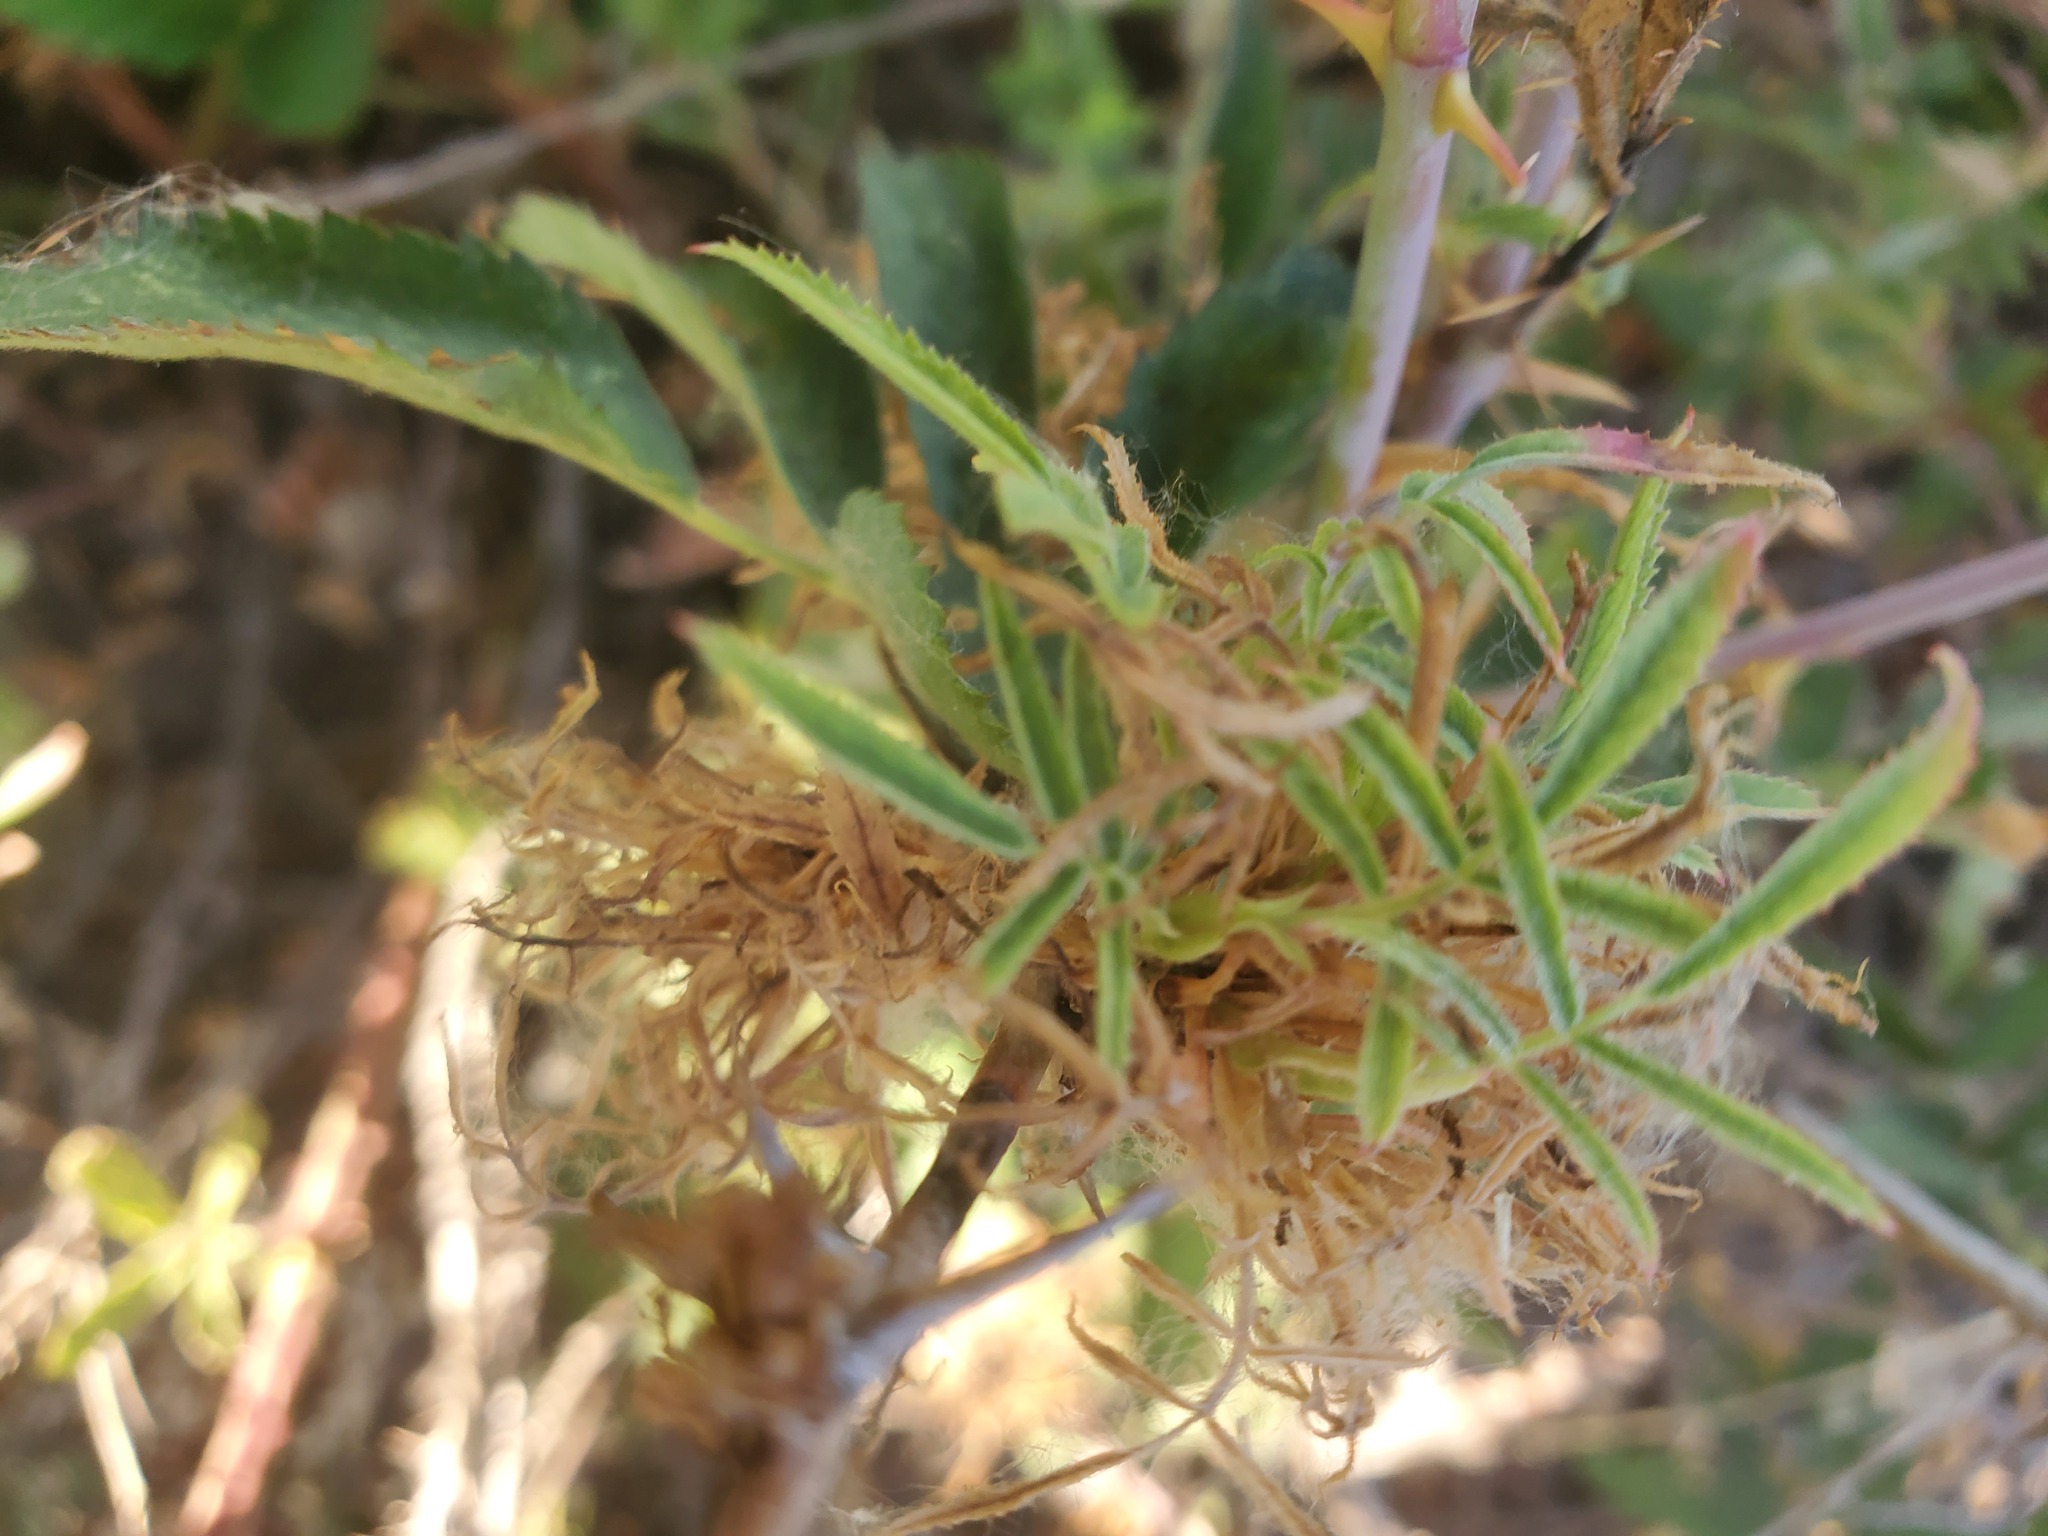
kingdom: Viruses
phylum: Negarnaviricota
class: Ellioviricetes
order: Bunyavirales
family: Fimoviridae
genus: Emaravirus
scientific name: Emaravirus rosae
